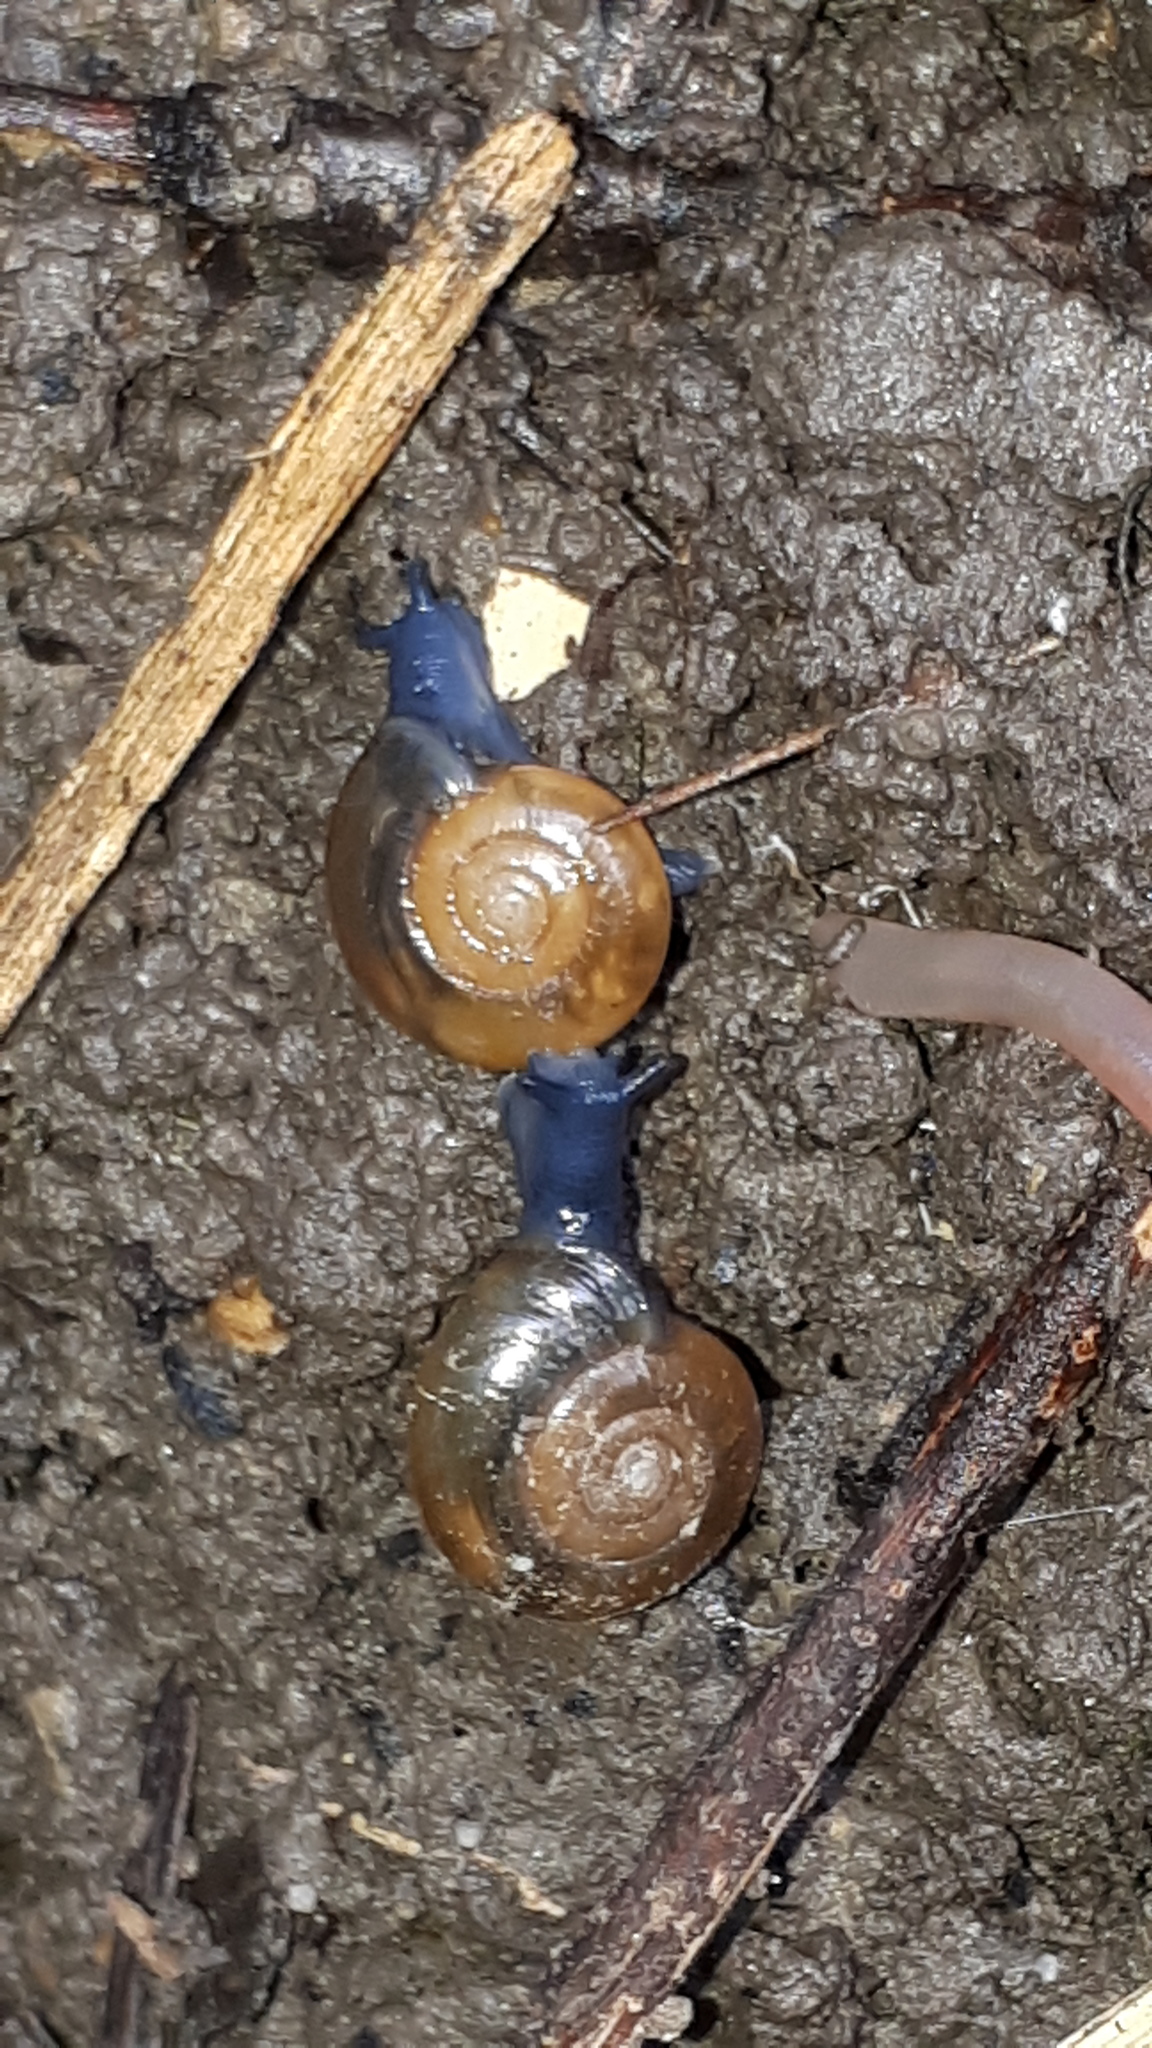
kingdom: Animalia
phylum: Mollusca
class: Gastropoda
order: Stylommatophora
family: Oxychilidae
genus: Oxychilus
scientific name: Oxychilus draparnaudi
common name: Draparnaud's glass snail
